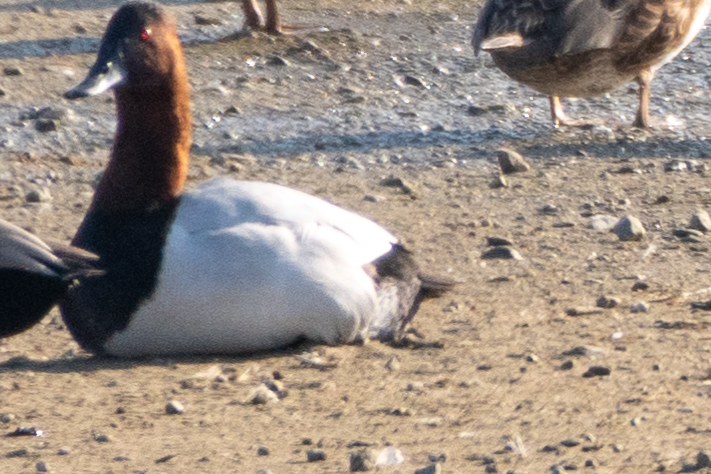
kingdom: Animalia
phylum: Chordata
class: Aves
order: Anseriformes
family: Anatidae
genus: Aythya
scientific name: Aythya valisineria
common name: Canvasback
